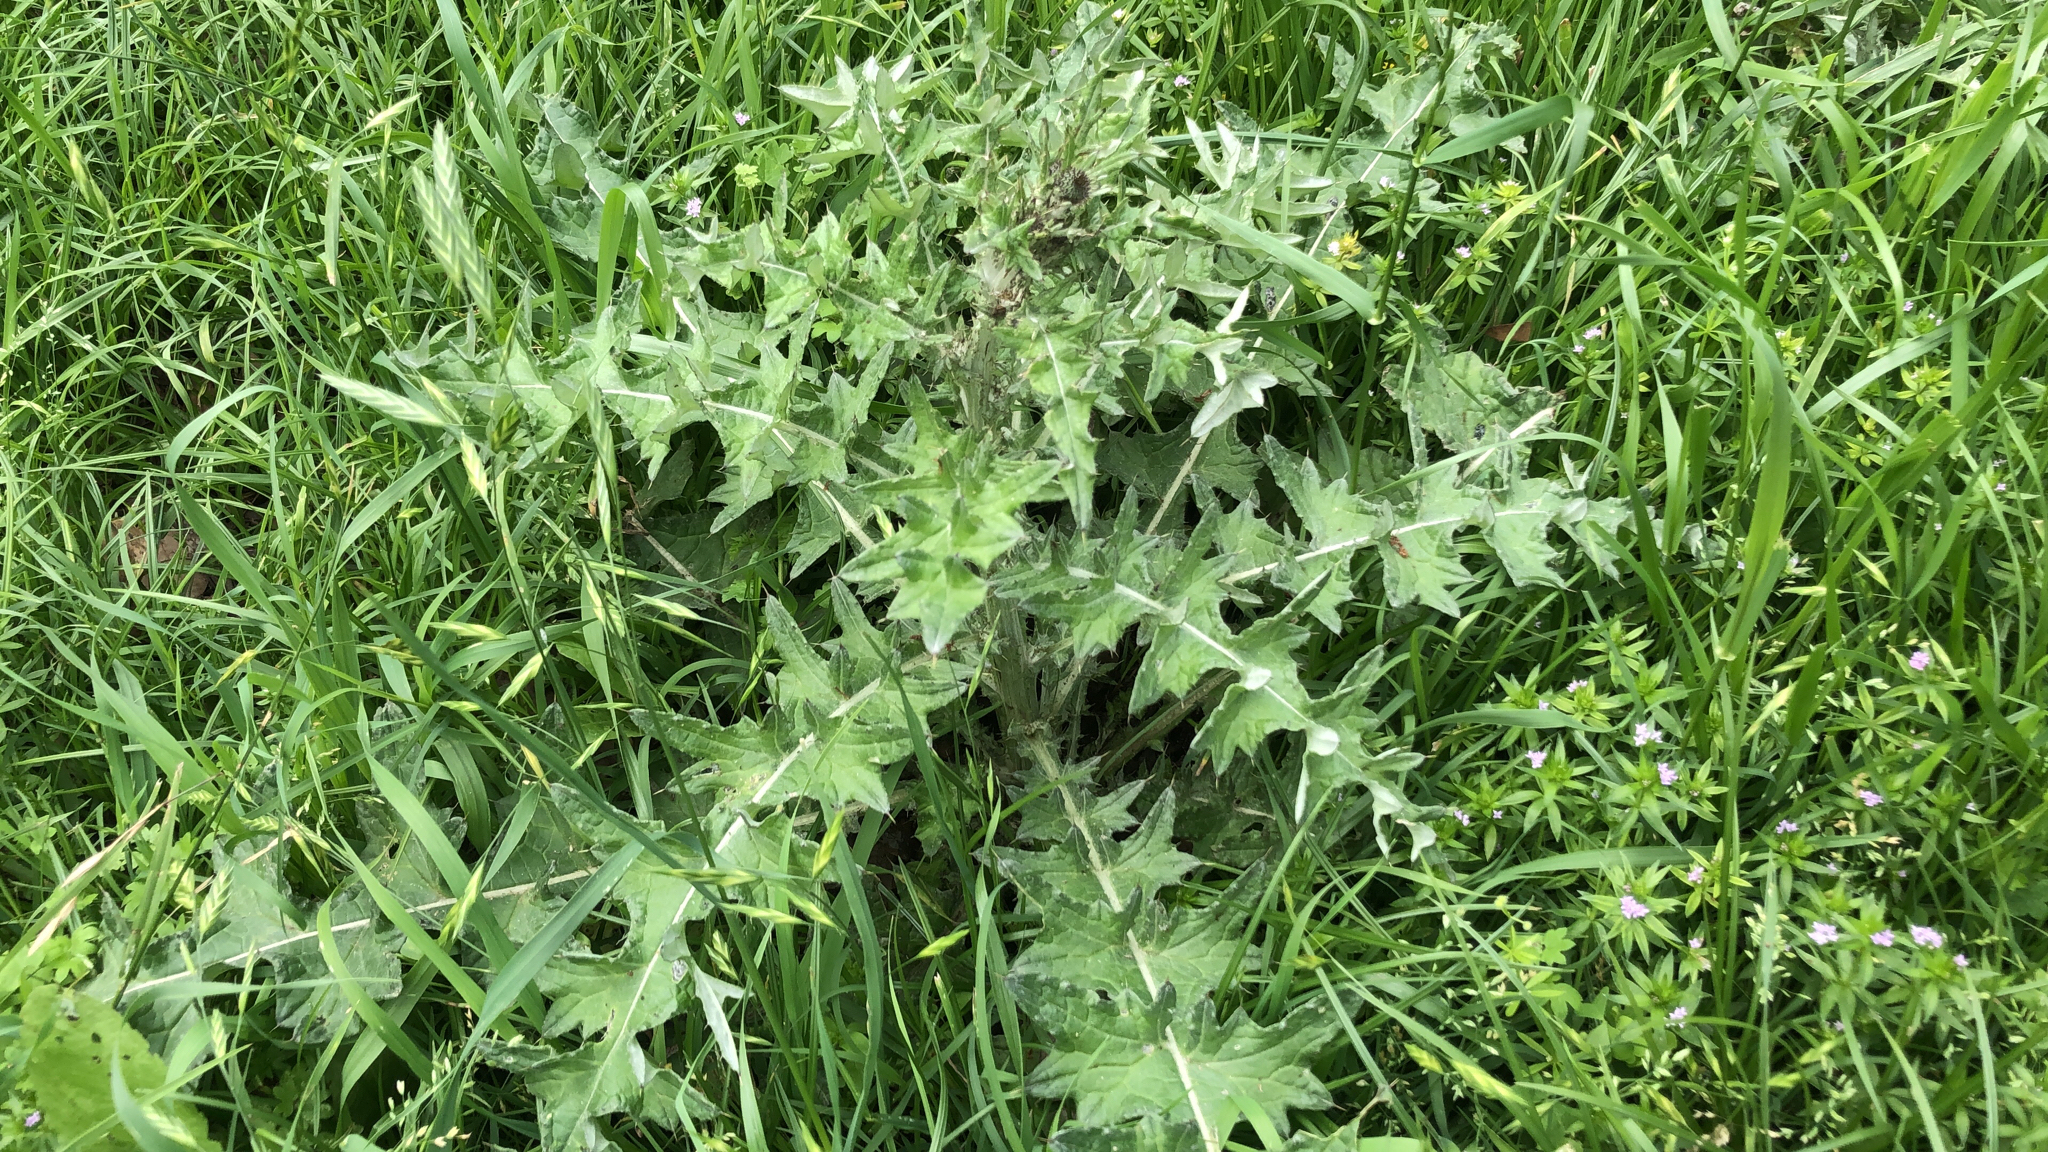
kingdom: Plantae
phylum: Tracheophyta
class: Magnoliopsida
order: Asterales
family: Asteraceae
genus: Cirsium
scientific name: Cirsium texanum
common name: Texas purple thistle
